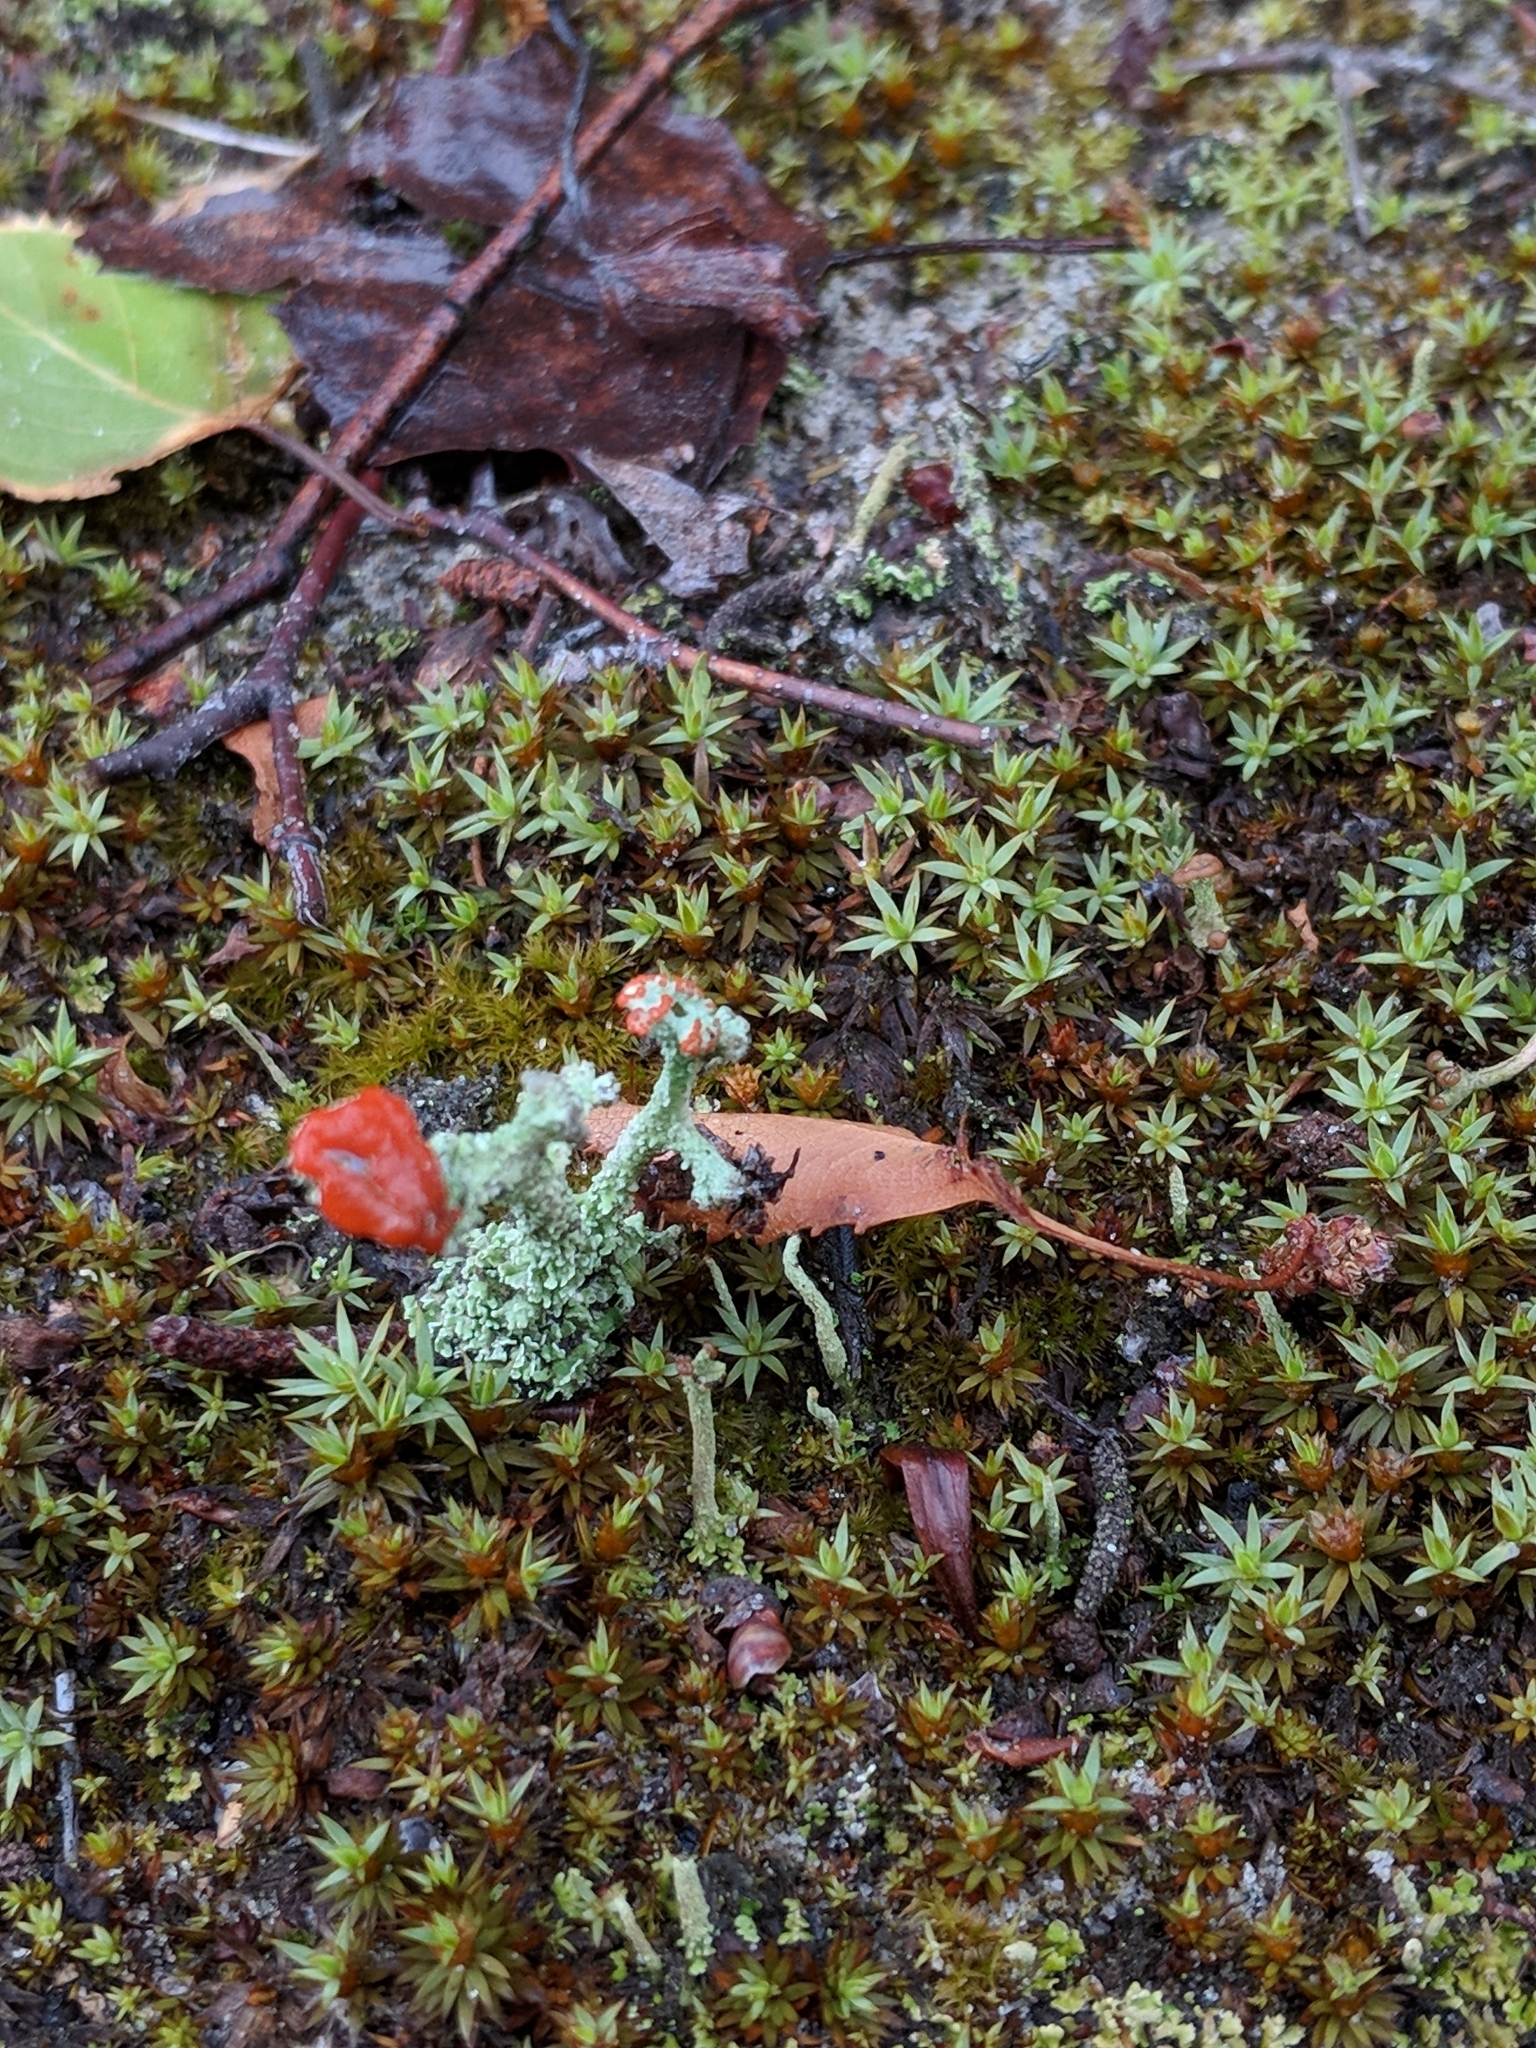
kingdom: Fungi
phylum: Ascomycota
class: Lecanoromycetes
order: Lecanorales
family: Cladoniaceae
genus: Cladonia
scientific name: Cladonia cristatella
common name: British soldier lichen
